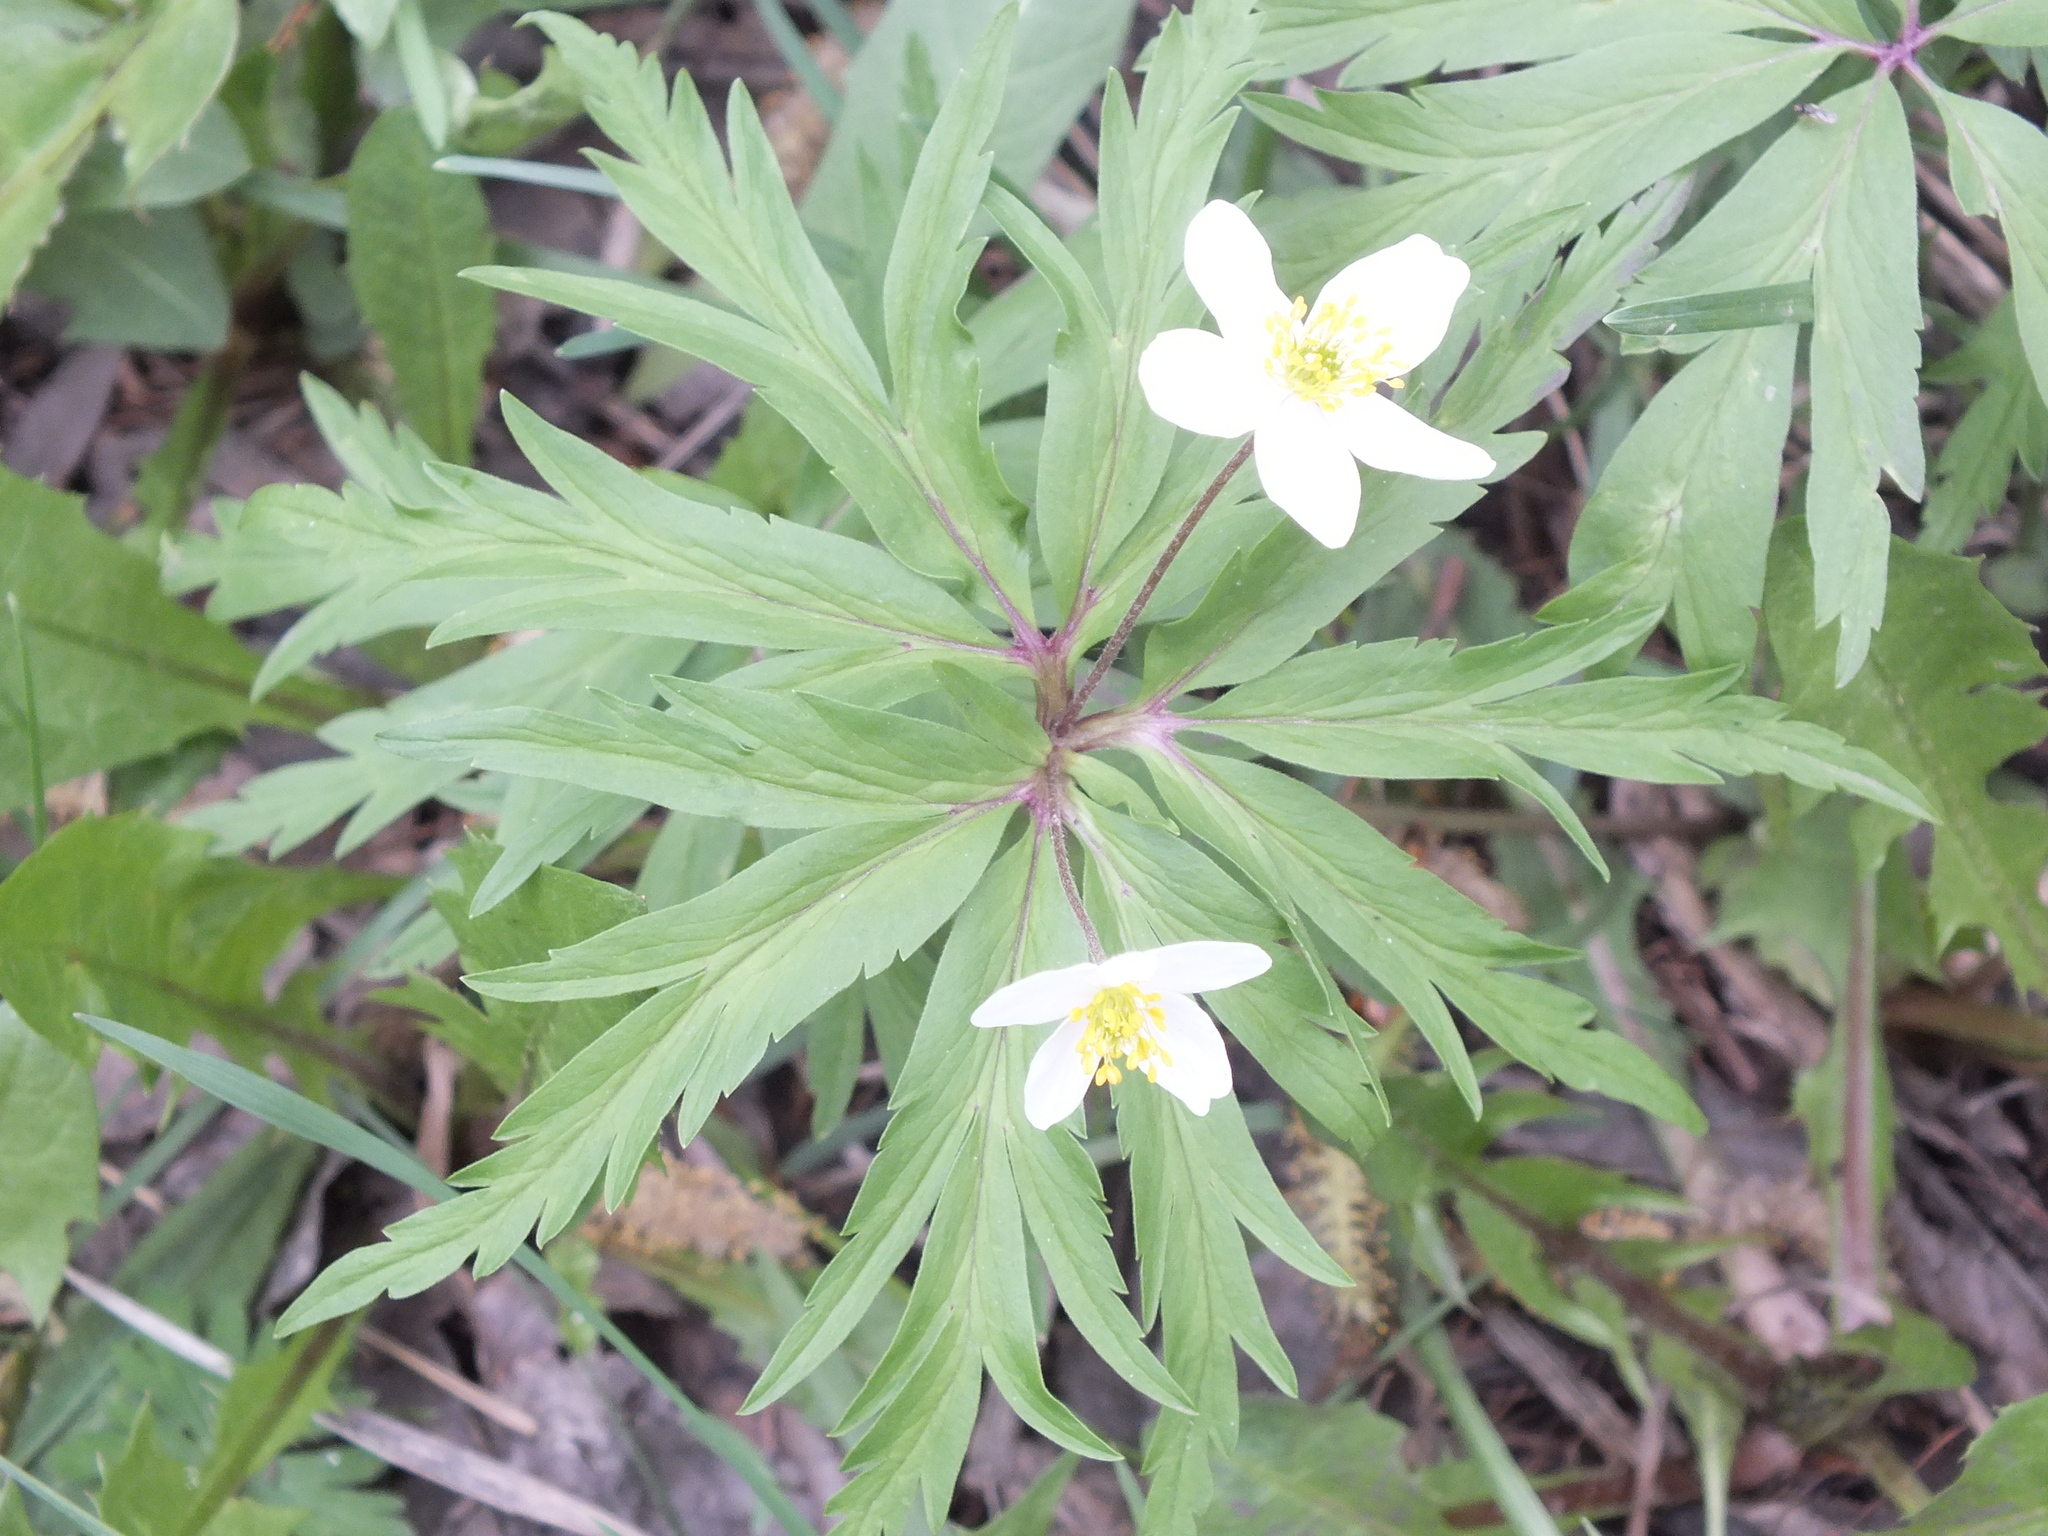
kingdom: Plantae
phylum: Tracheophyta
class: Magnoliopsida
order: Ranunculales
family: Ranunculaceae
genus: Anemone
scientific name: Anemone caerulea
